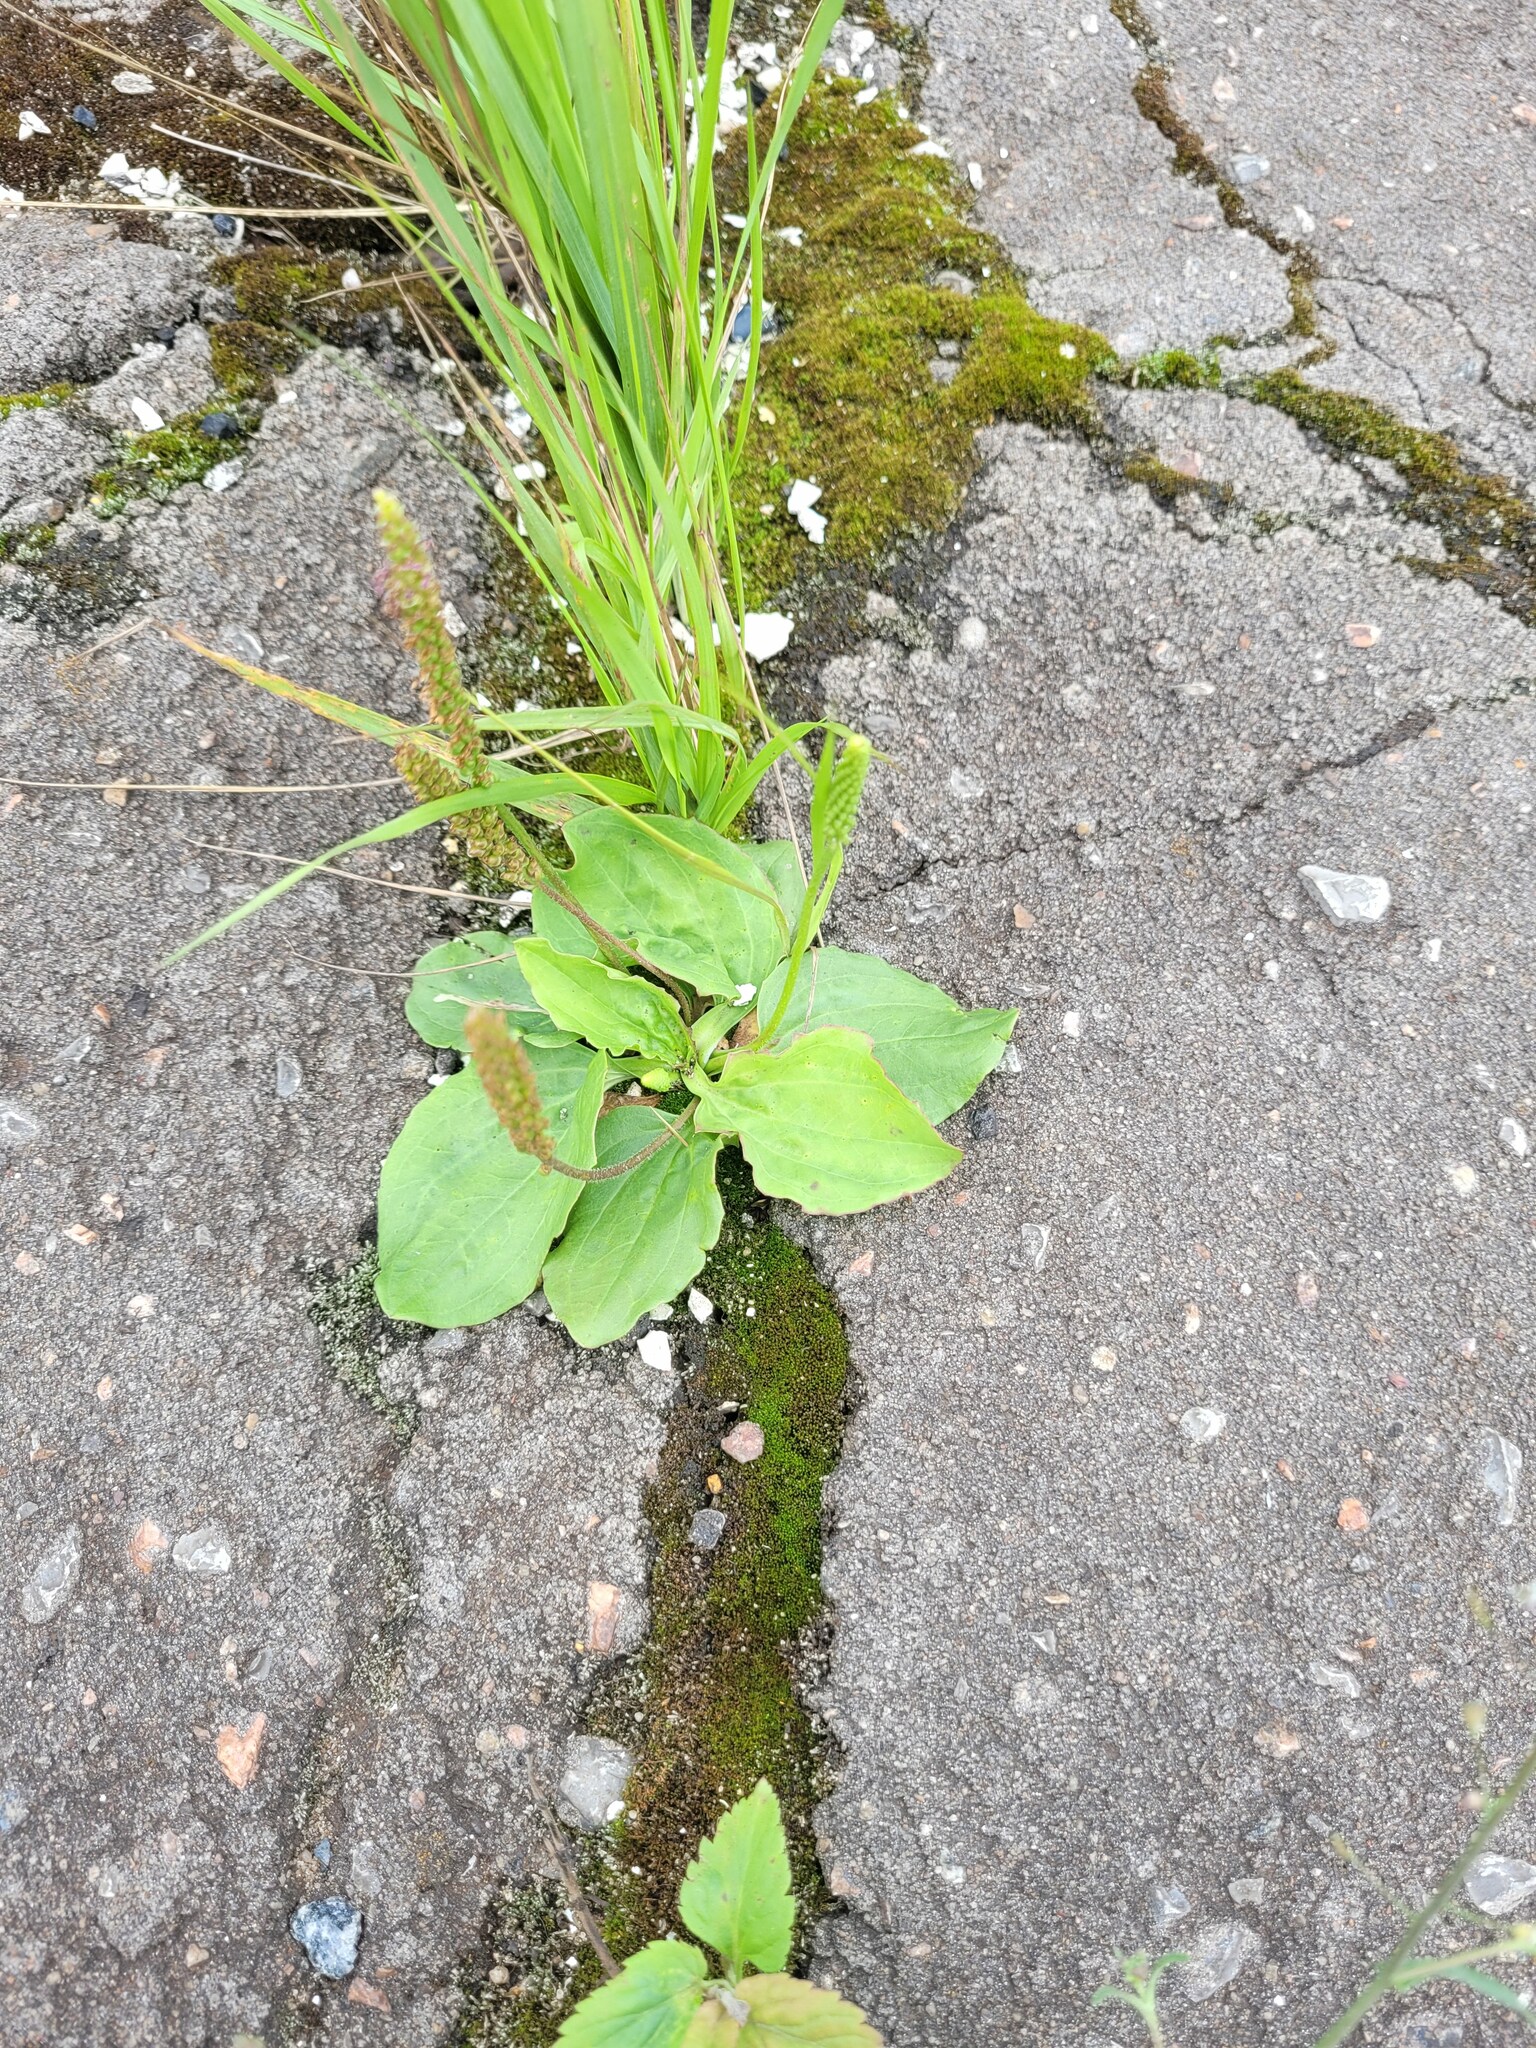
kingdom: Plantae
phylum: Tracheophyta
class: Magnoliopsida
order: Lamiales
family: Plantaginaceae
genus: Plantago
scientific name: Plantago uliginosa
